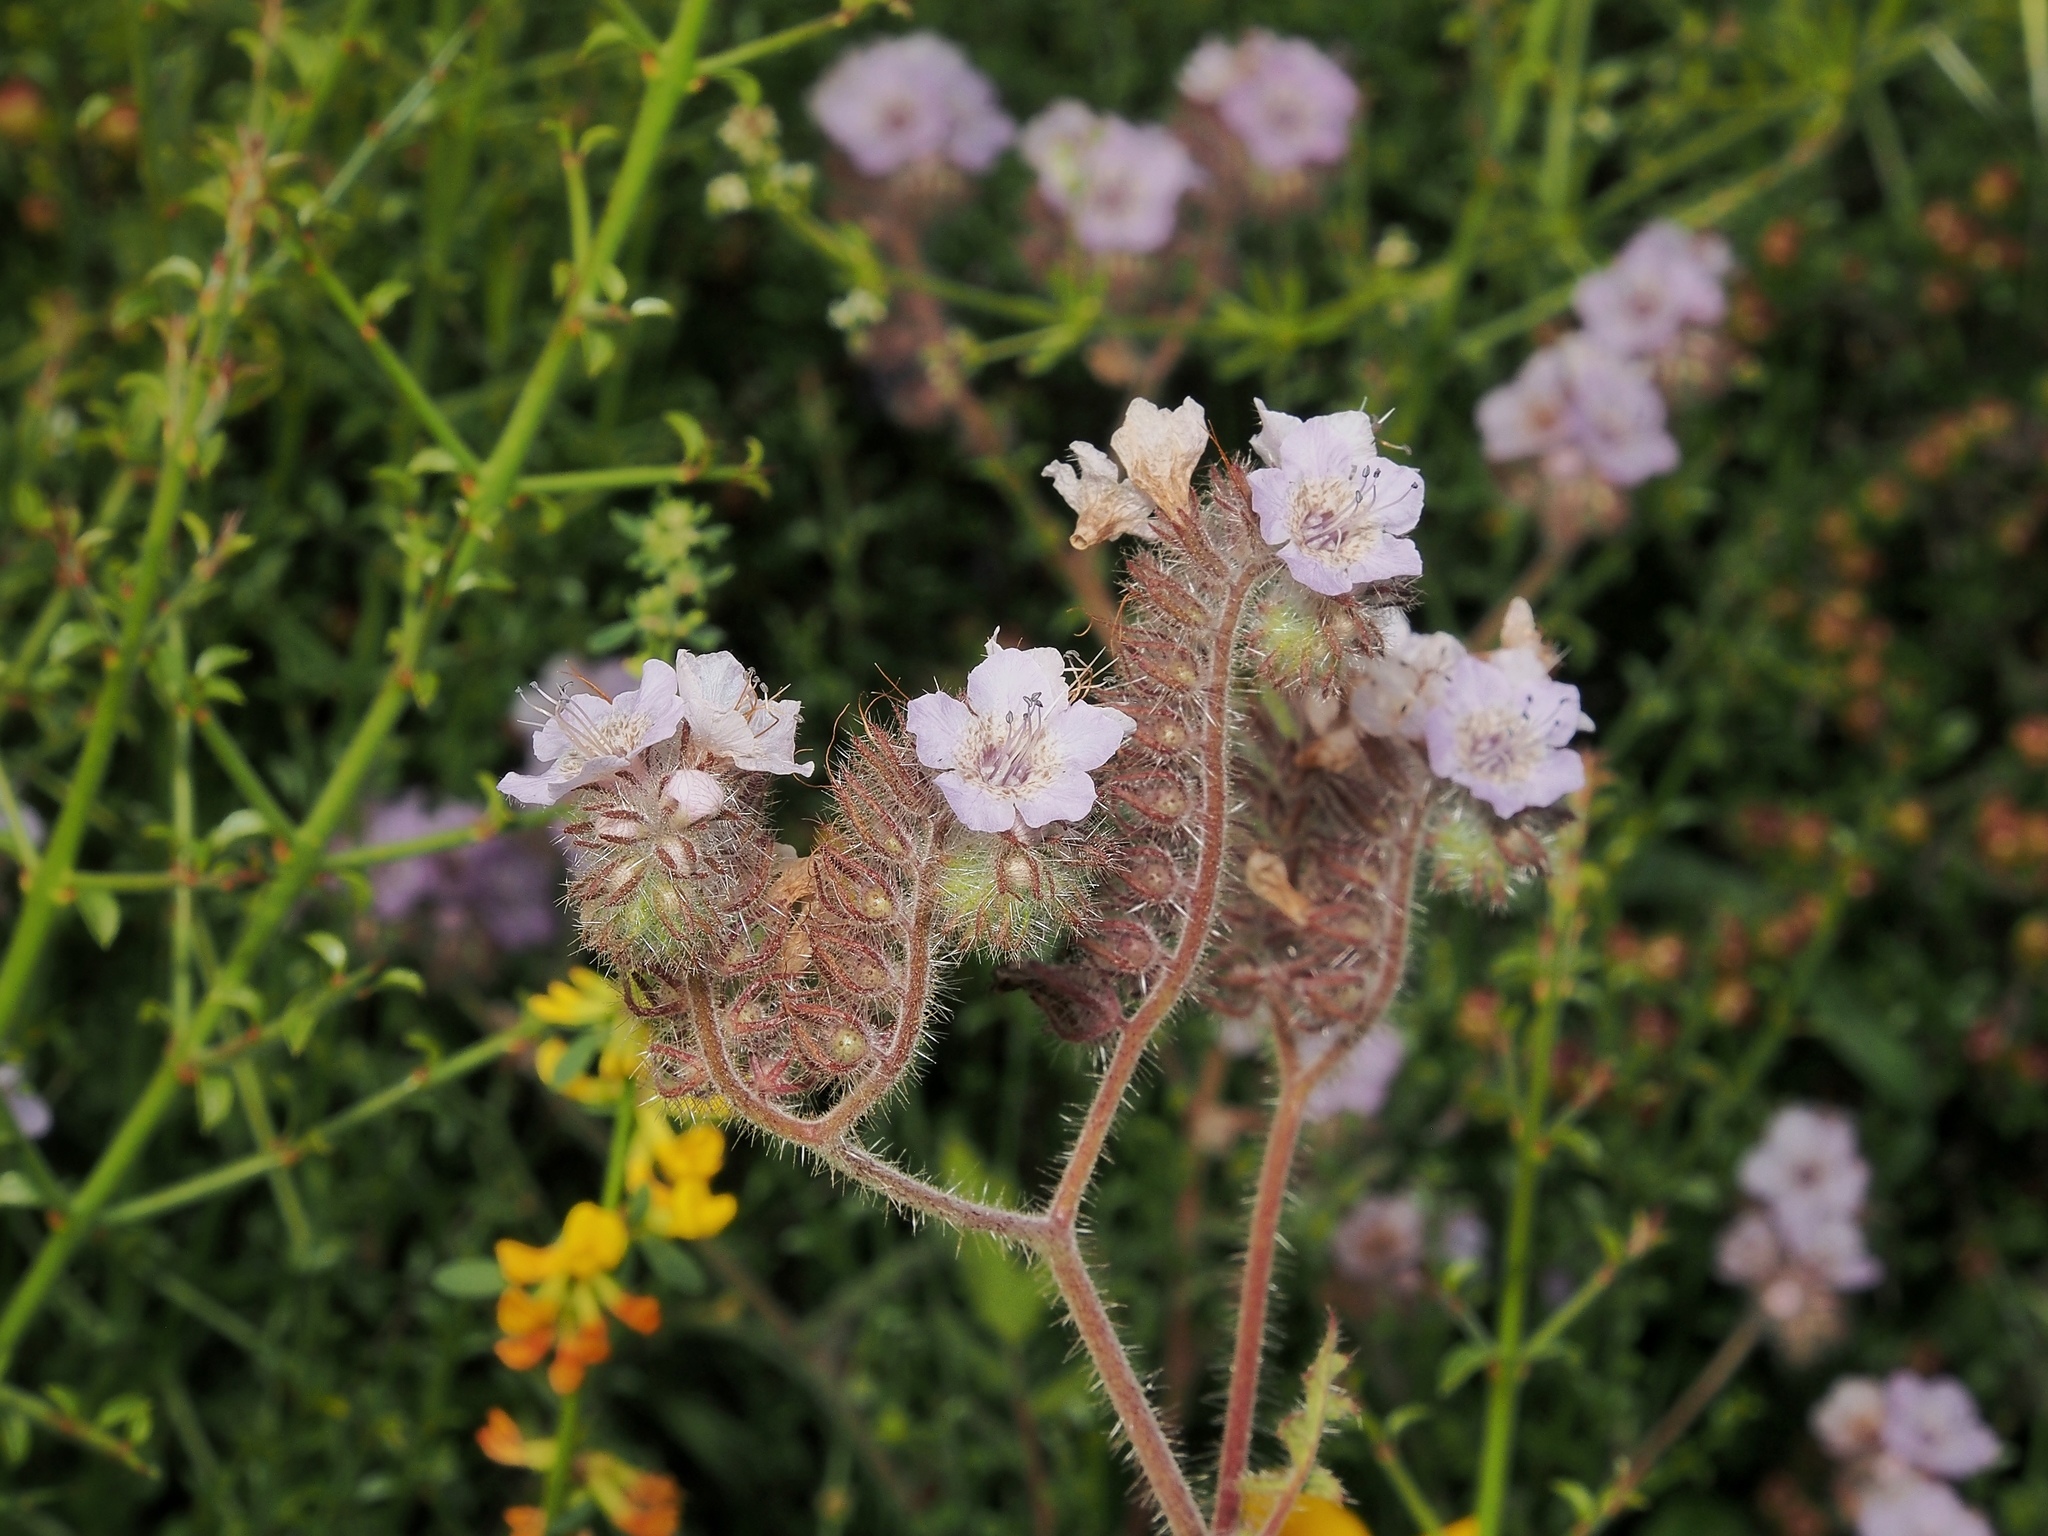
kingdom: Plantae
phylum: Tracheophyta
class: Magnoliopsida
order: Boraginales
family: Hydrophyllaceae
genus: Phacelia
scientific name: Phacelia cicutaria
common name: Caterpillar phacelia
